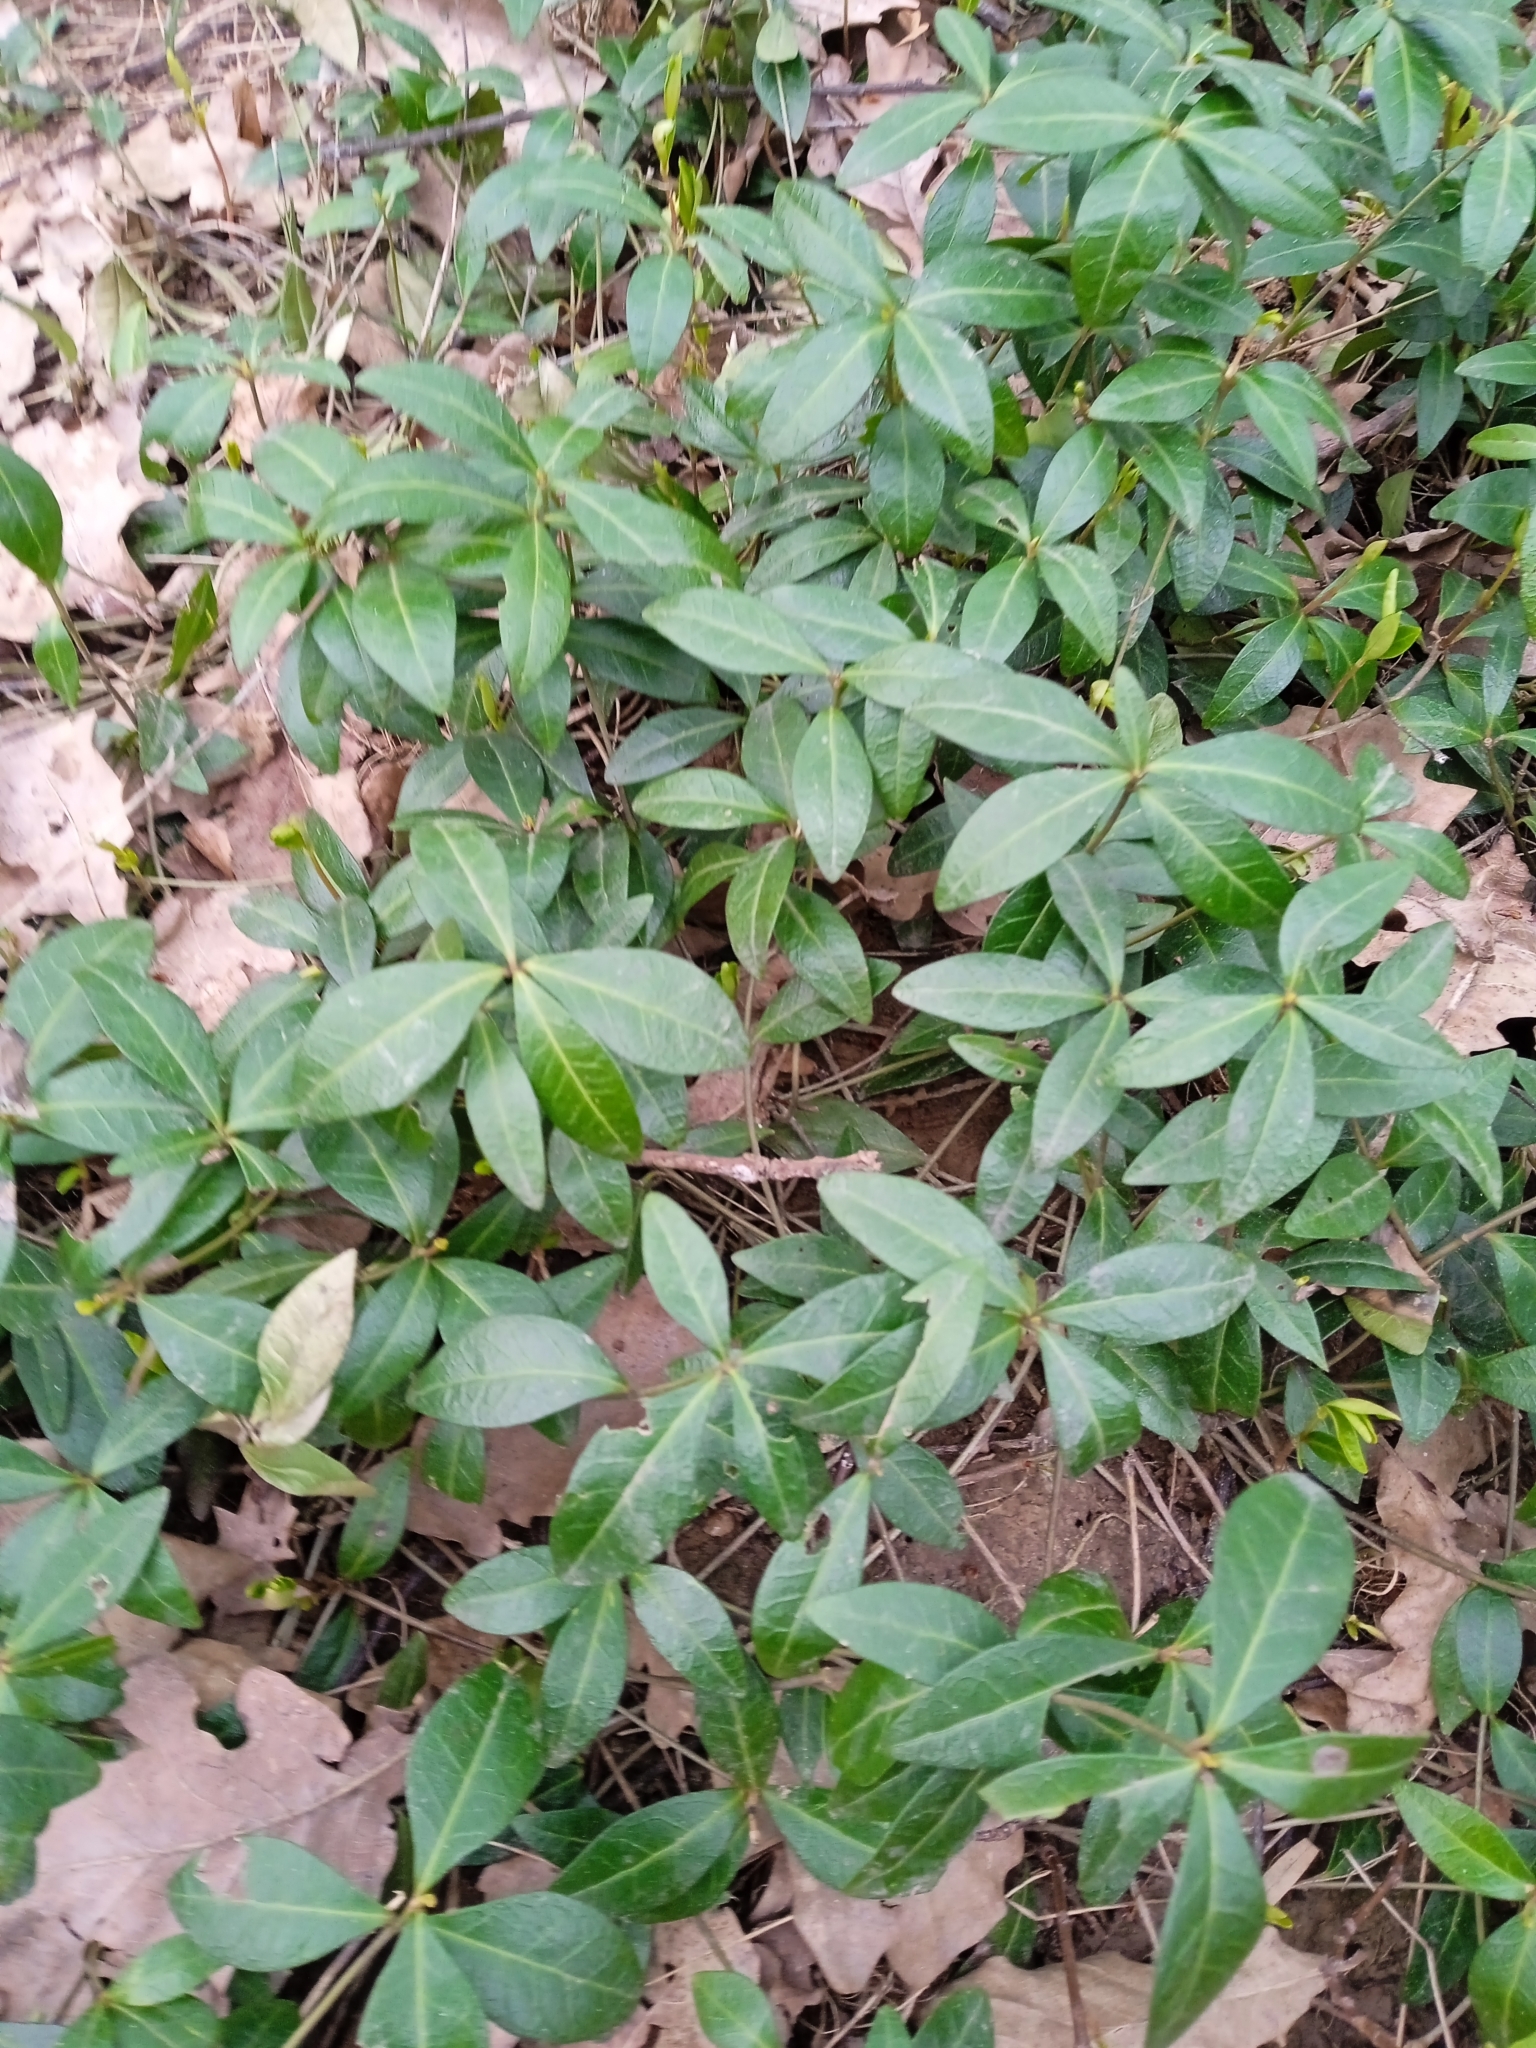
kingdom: Plantae
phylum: Tracheophyta
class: Magnoliopsida
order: Gentianales
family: Apocynaceae
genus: Vinca
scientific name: Vinca minor
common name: Lesser periwinkle
